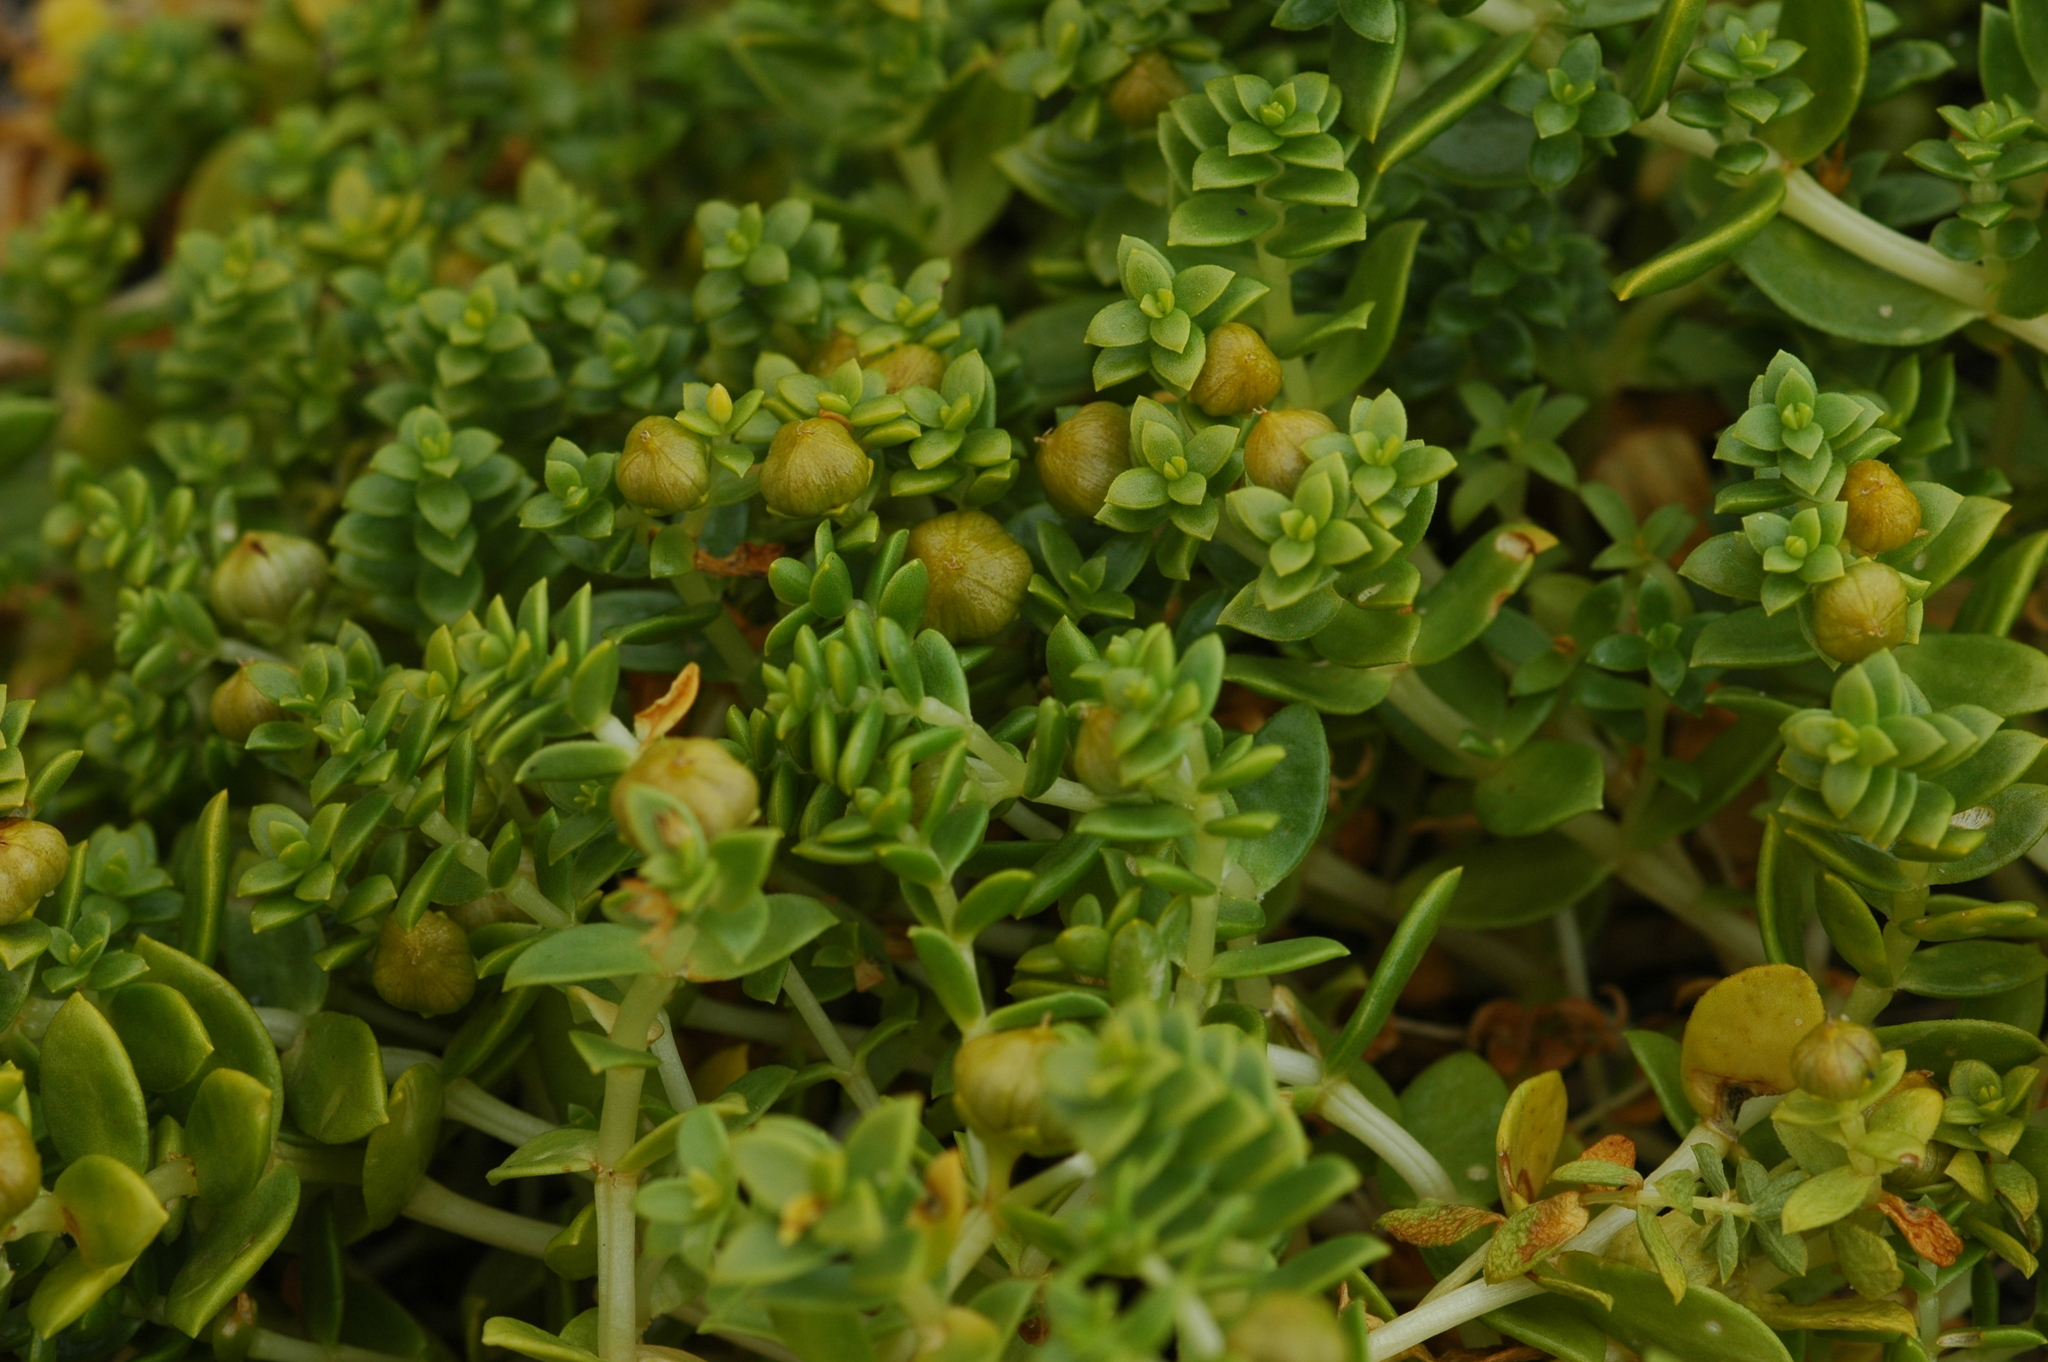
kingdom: Plantae
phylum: Tracheophyta
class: Magnoliopsida
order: Caryophyllales
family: Caryophyllaceae
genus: Honckenya
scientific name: Honckenya peploides
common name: Sea sandwort
